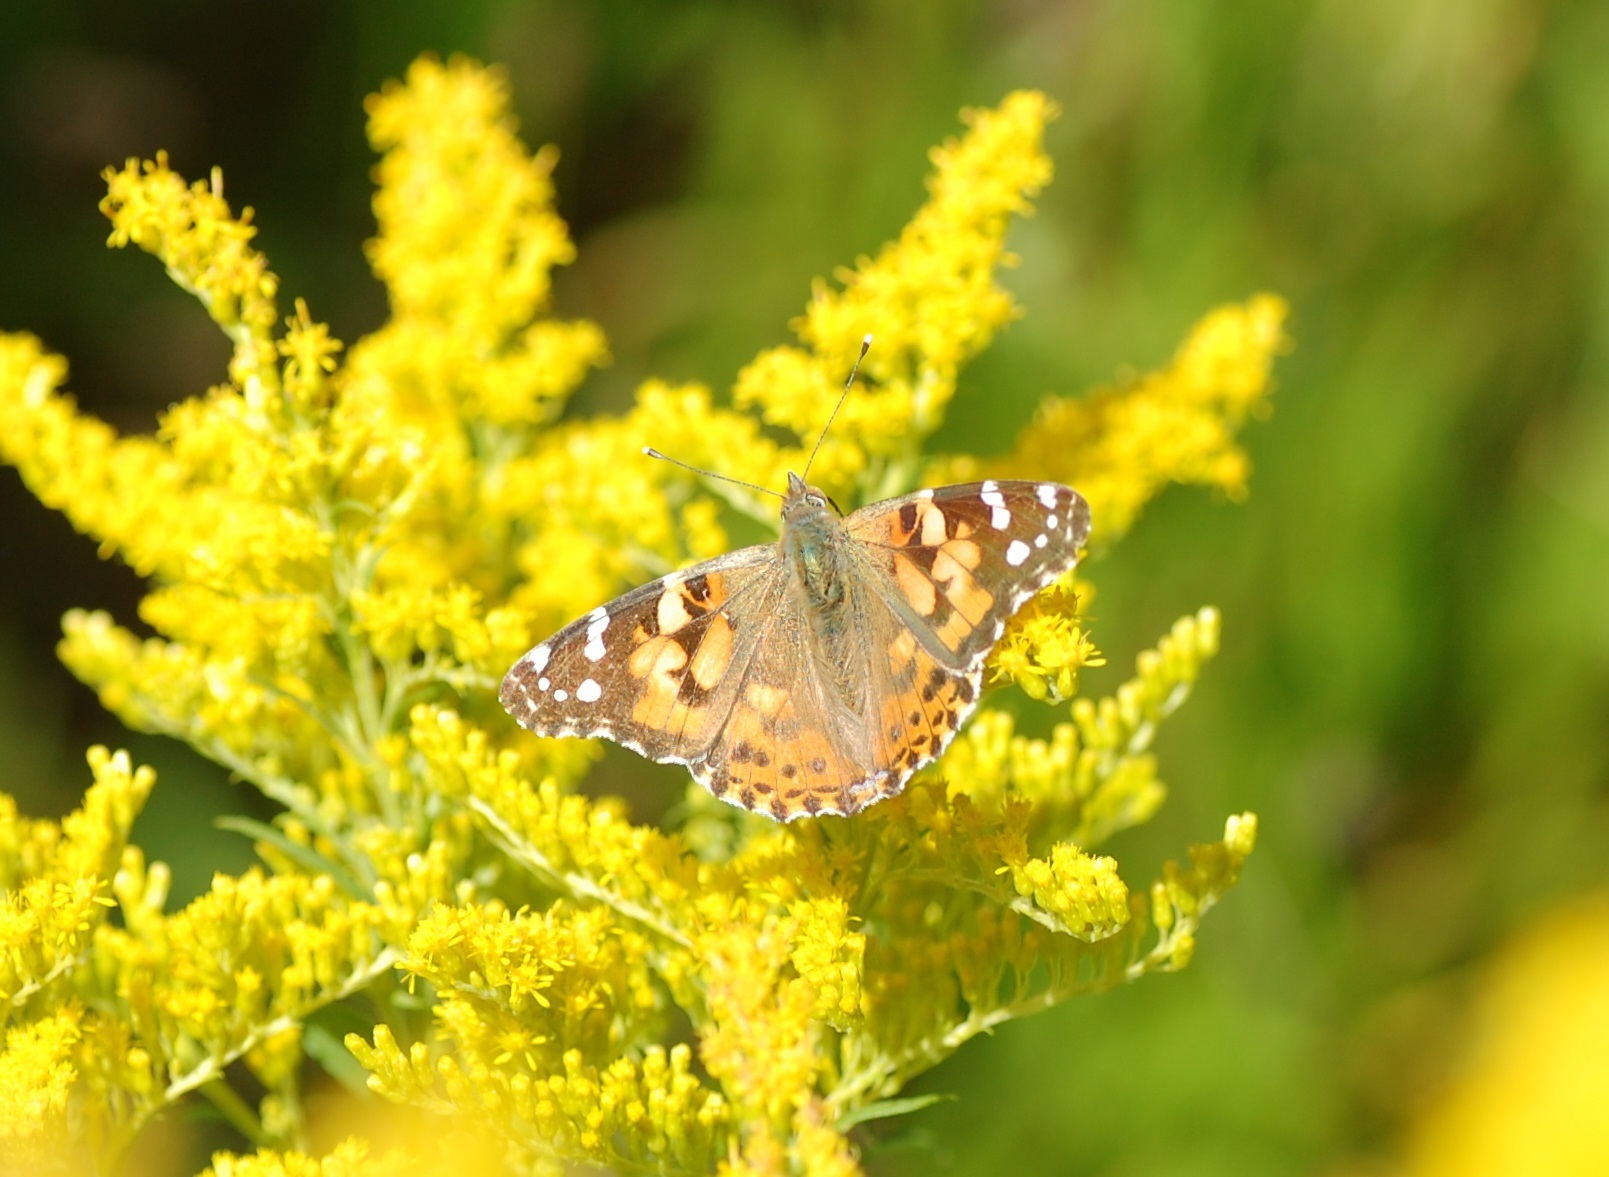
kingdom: Animalia
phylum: Arthropoda
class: Insecta
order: Lepidoptera
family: Nymphalidae
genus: Vanessa
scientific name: Vanessa cardui
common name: Painted lady
